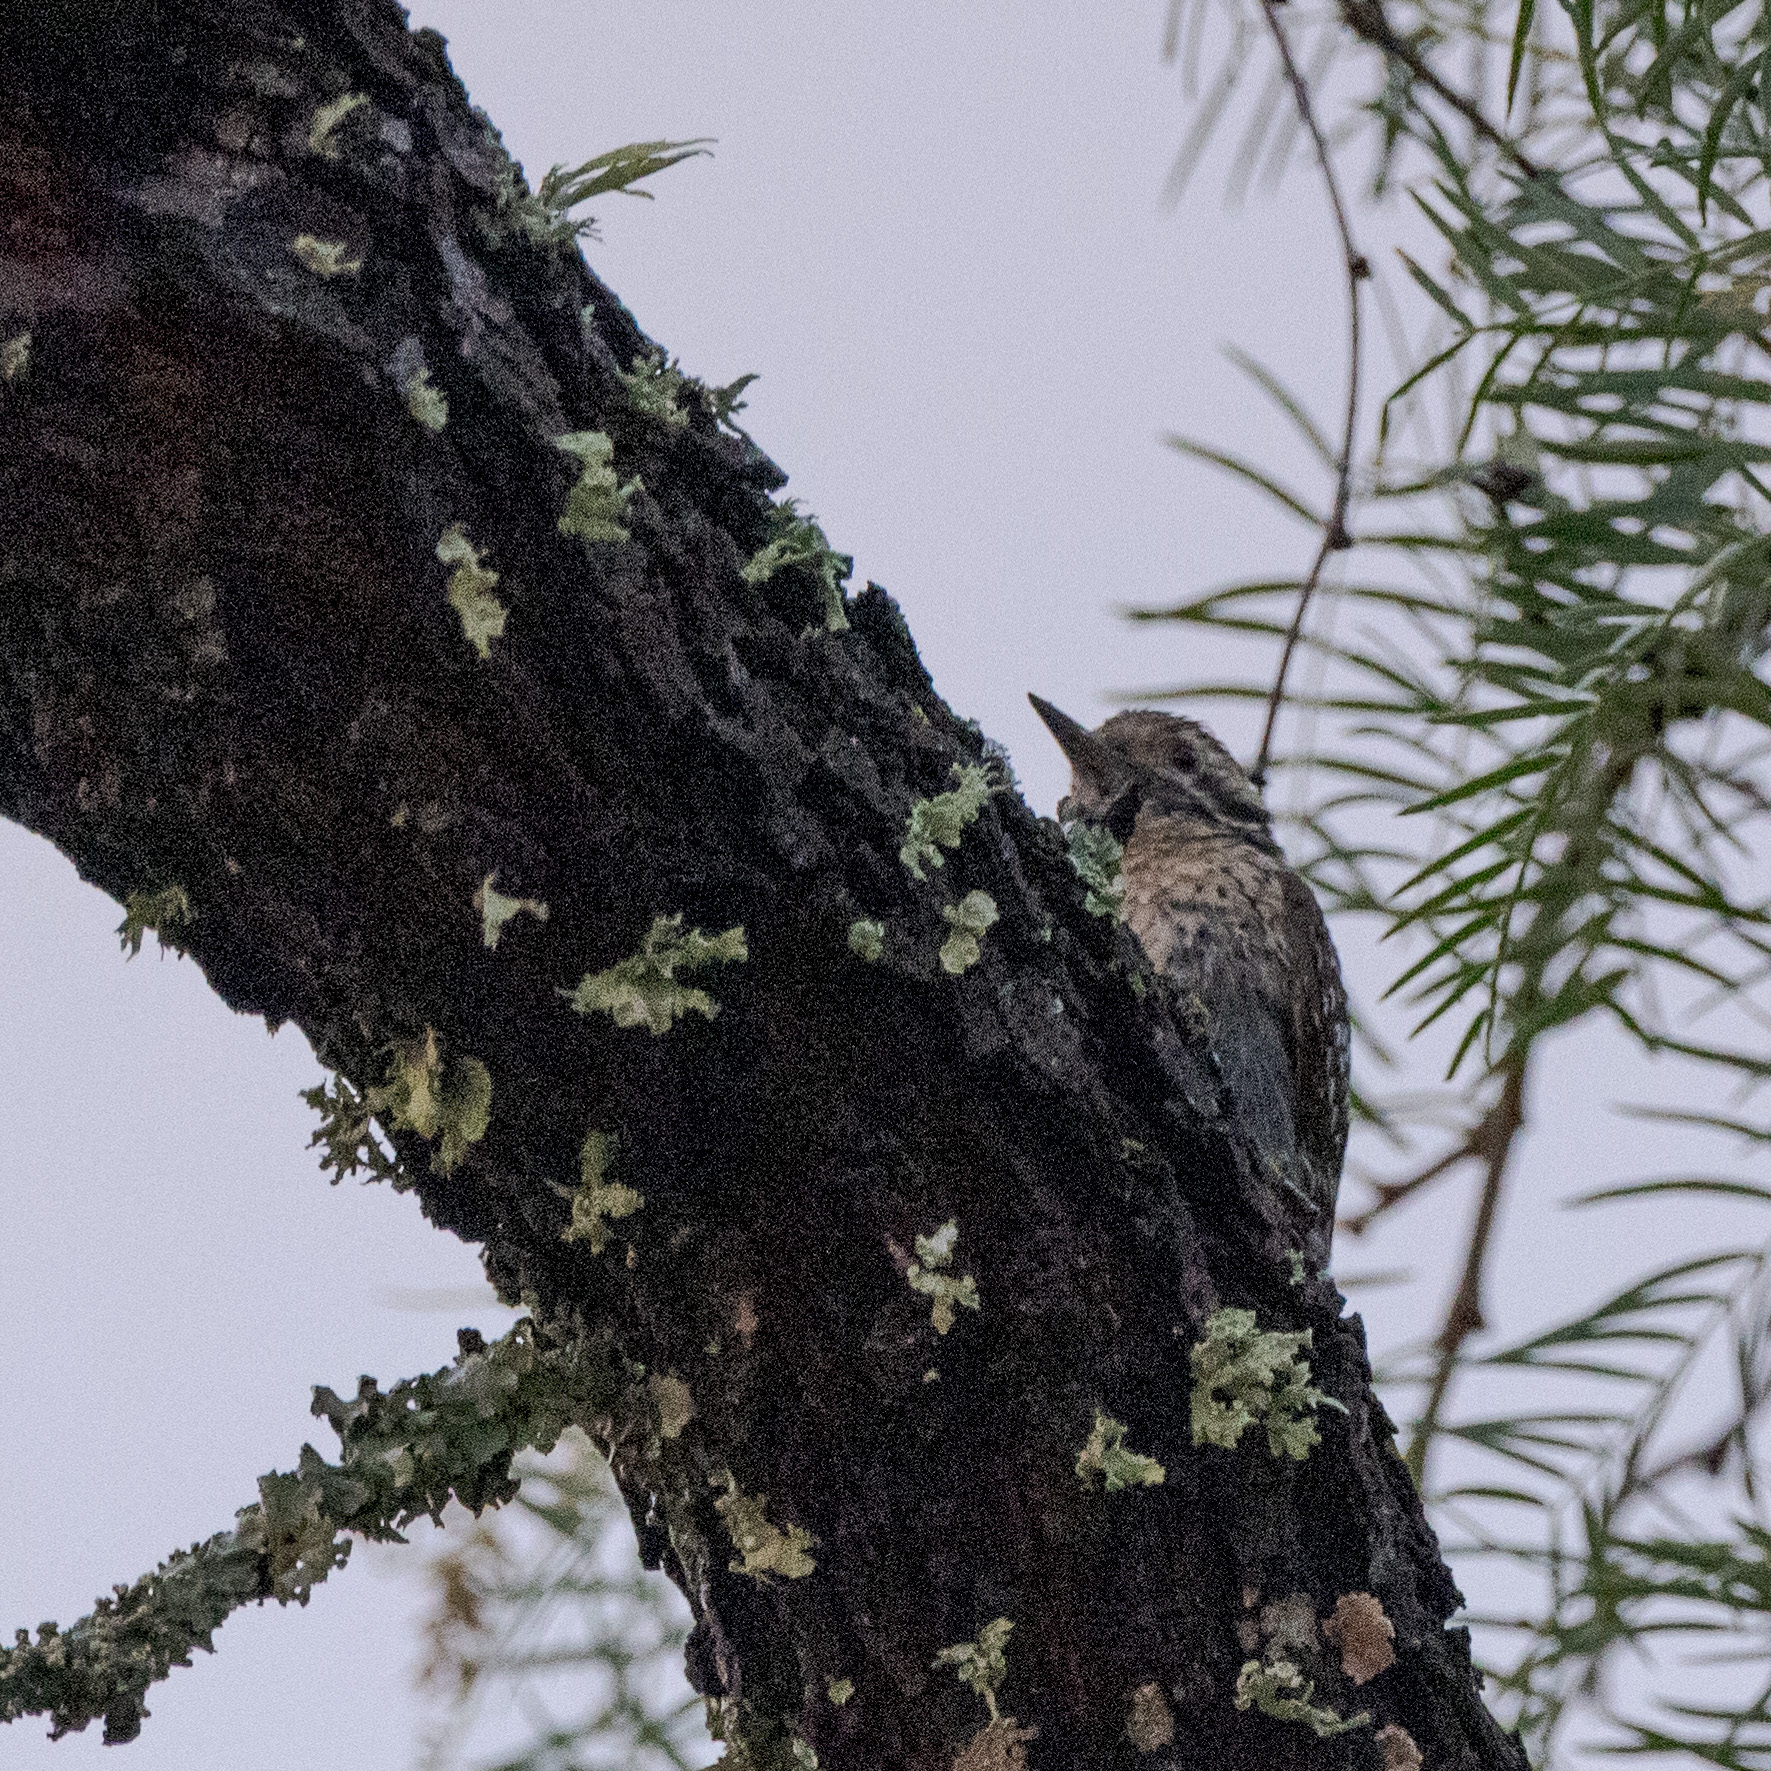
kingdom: Animalia
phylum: Chordata
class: Aves
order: Piciformes
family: Picidae
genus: Dryobates
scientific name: Dryobates scalaris
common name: Ladder-backed woodpecker
